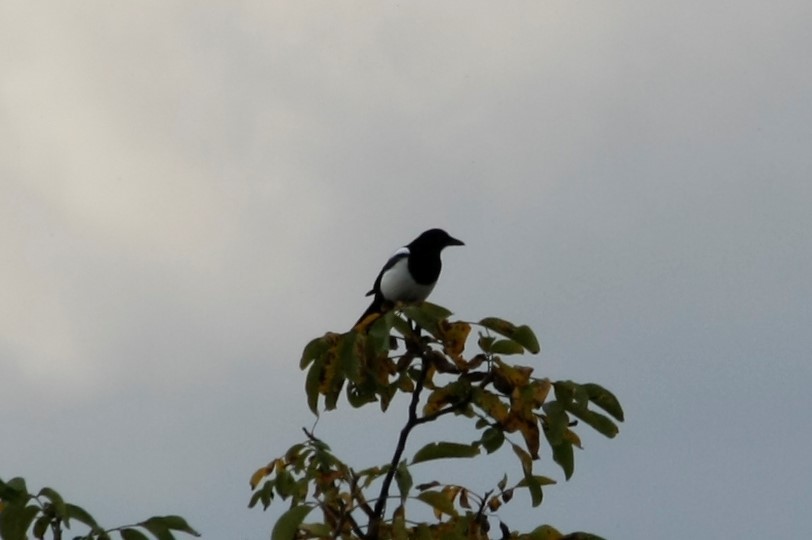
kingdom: Animalia
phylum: Chordata
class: Aves
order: Passeriformes
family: Corvidae
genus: Pica
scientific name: Pica pica
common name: Eurasian magpie
